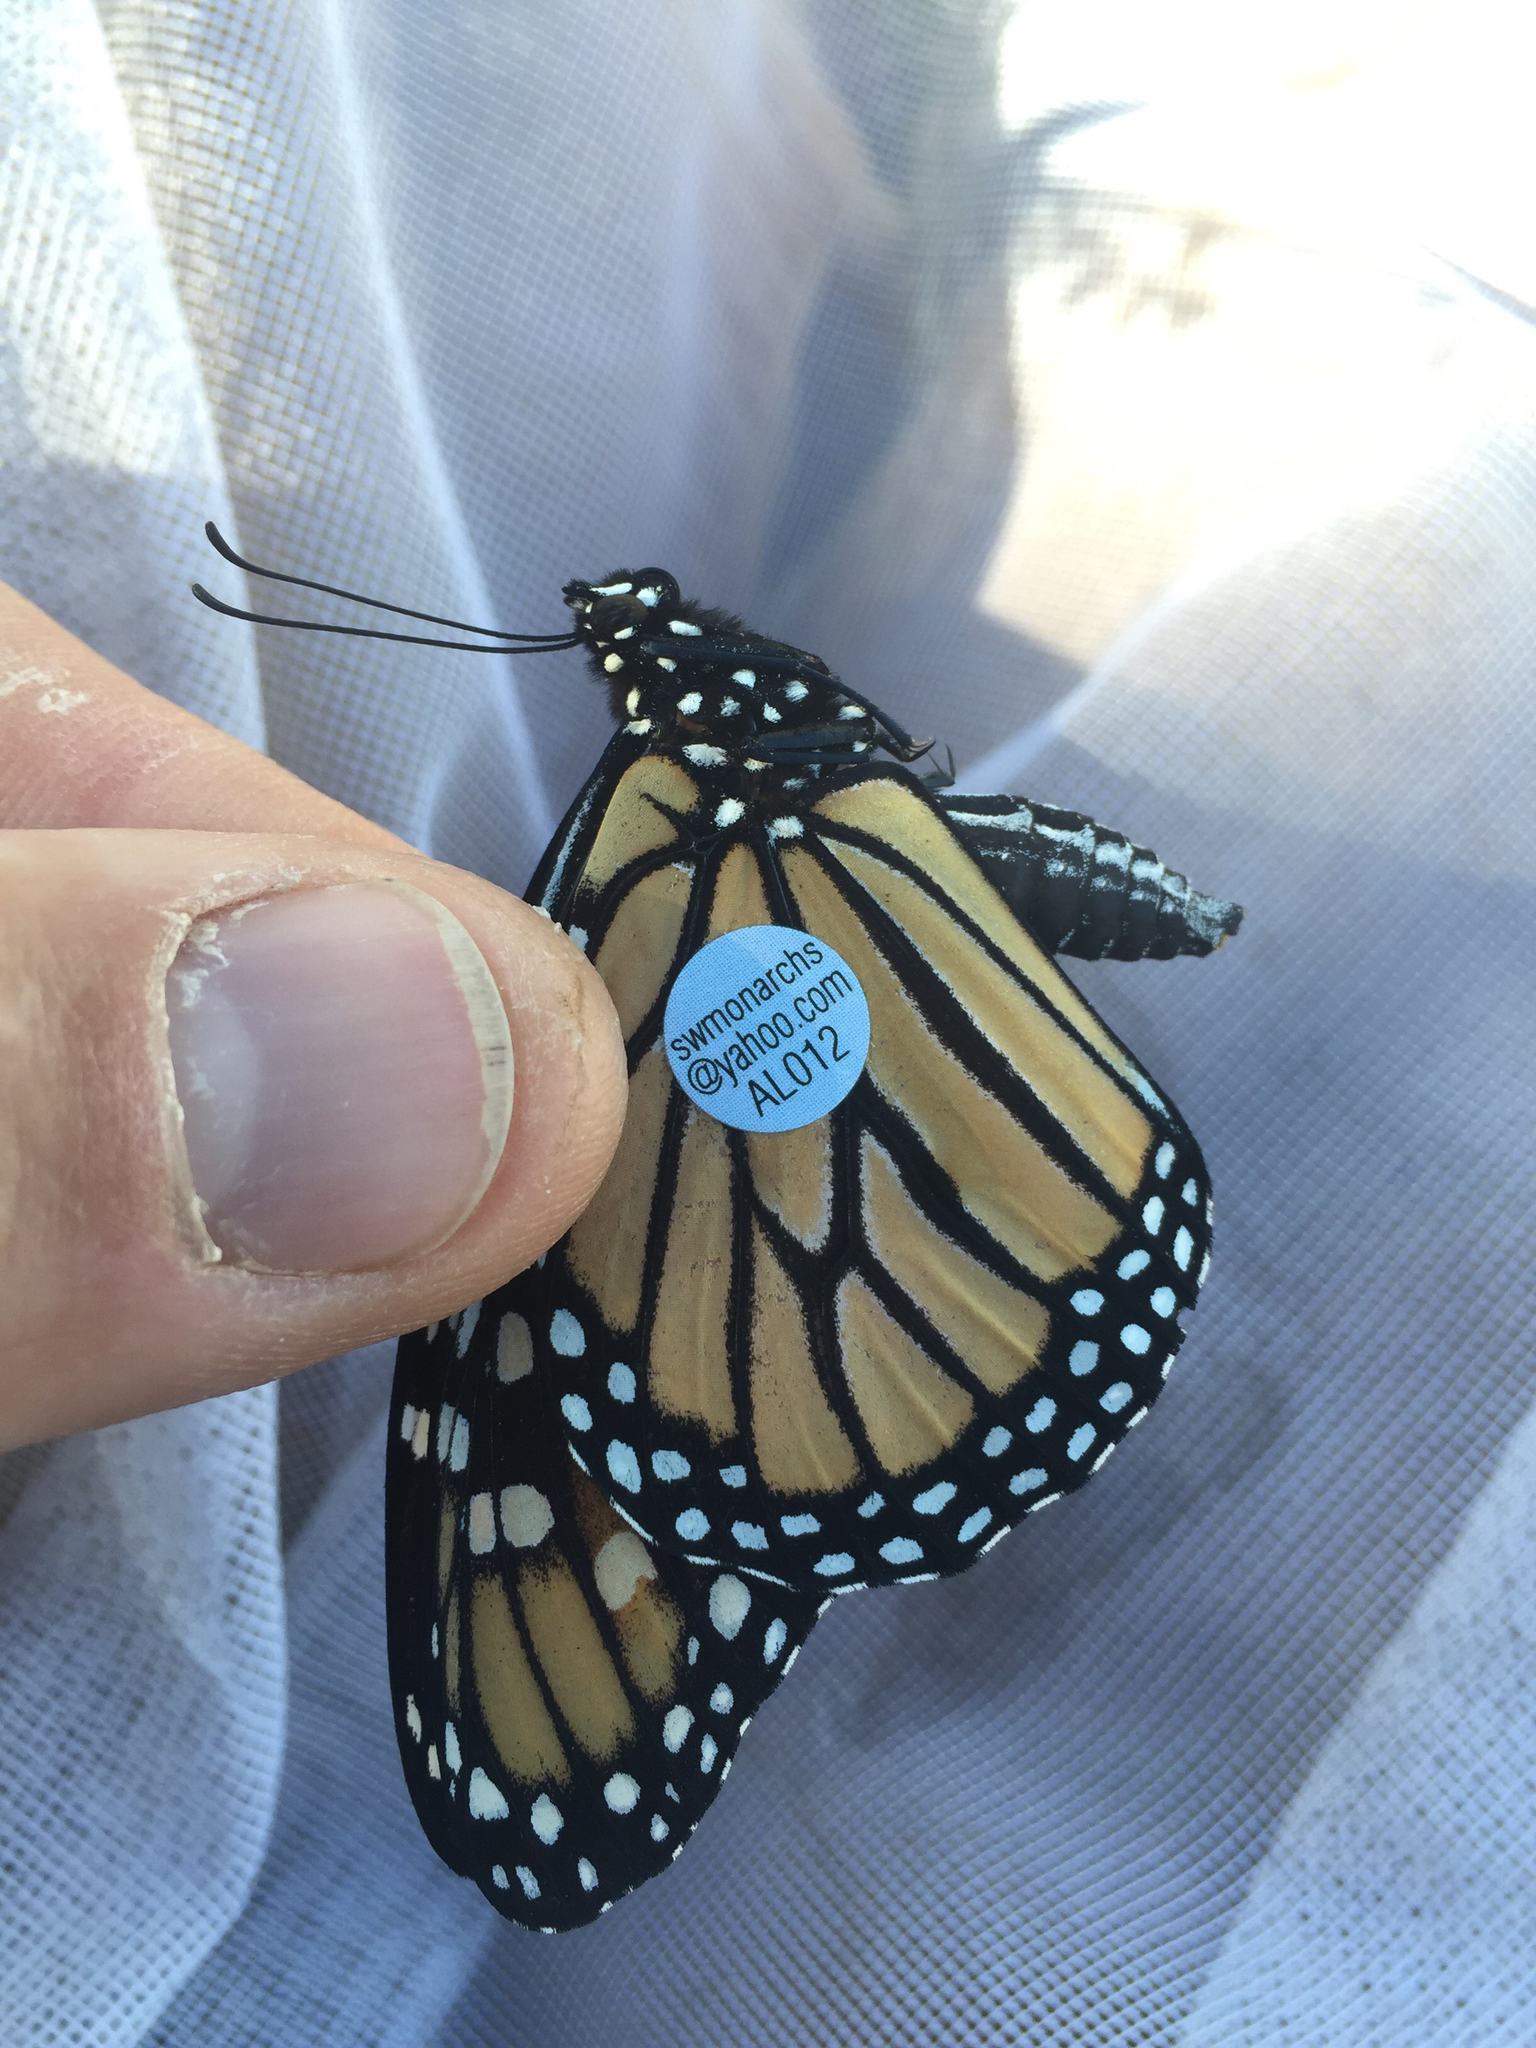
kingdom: Animalia
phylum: Arthropoda
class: Insecta
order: Lepidoptera
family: Nymphalidae
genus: Danaus
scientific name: Danaus plexippus
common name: Monarch
